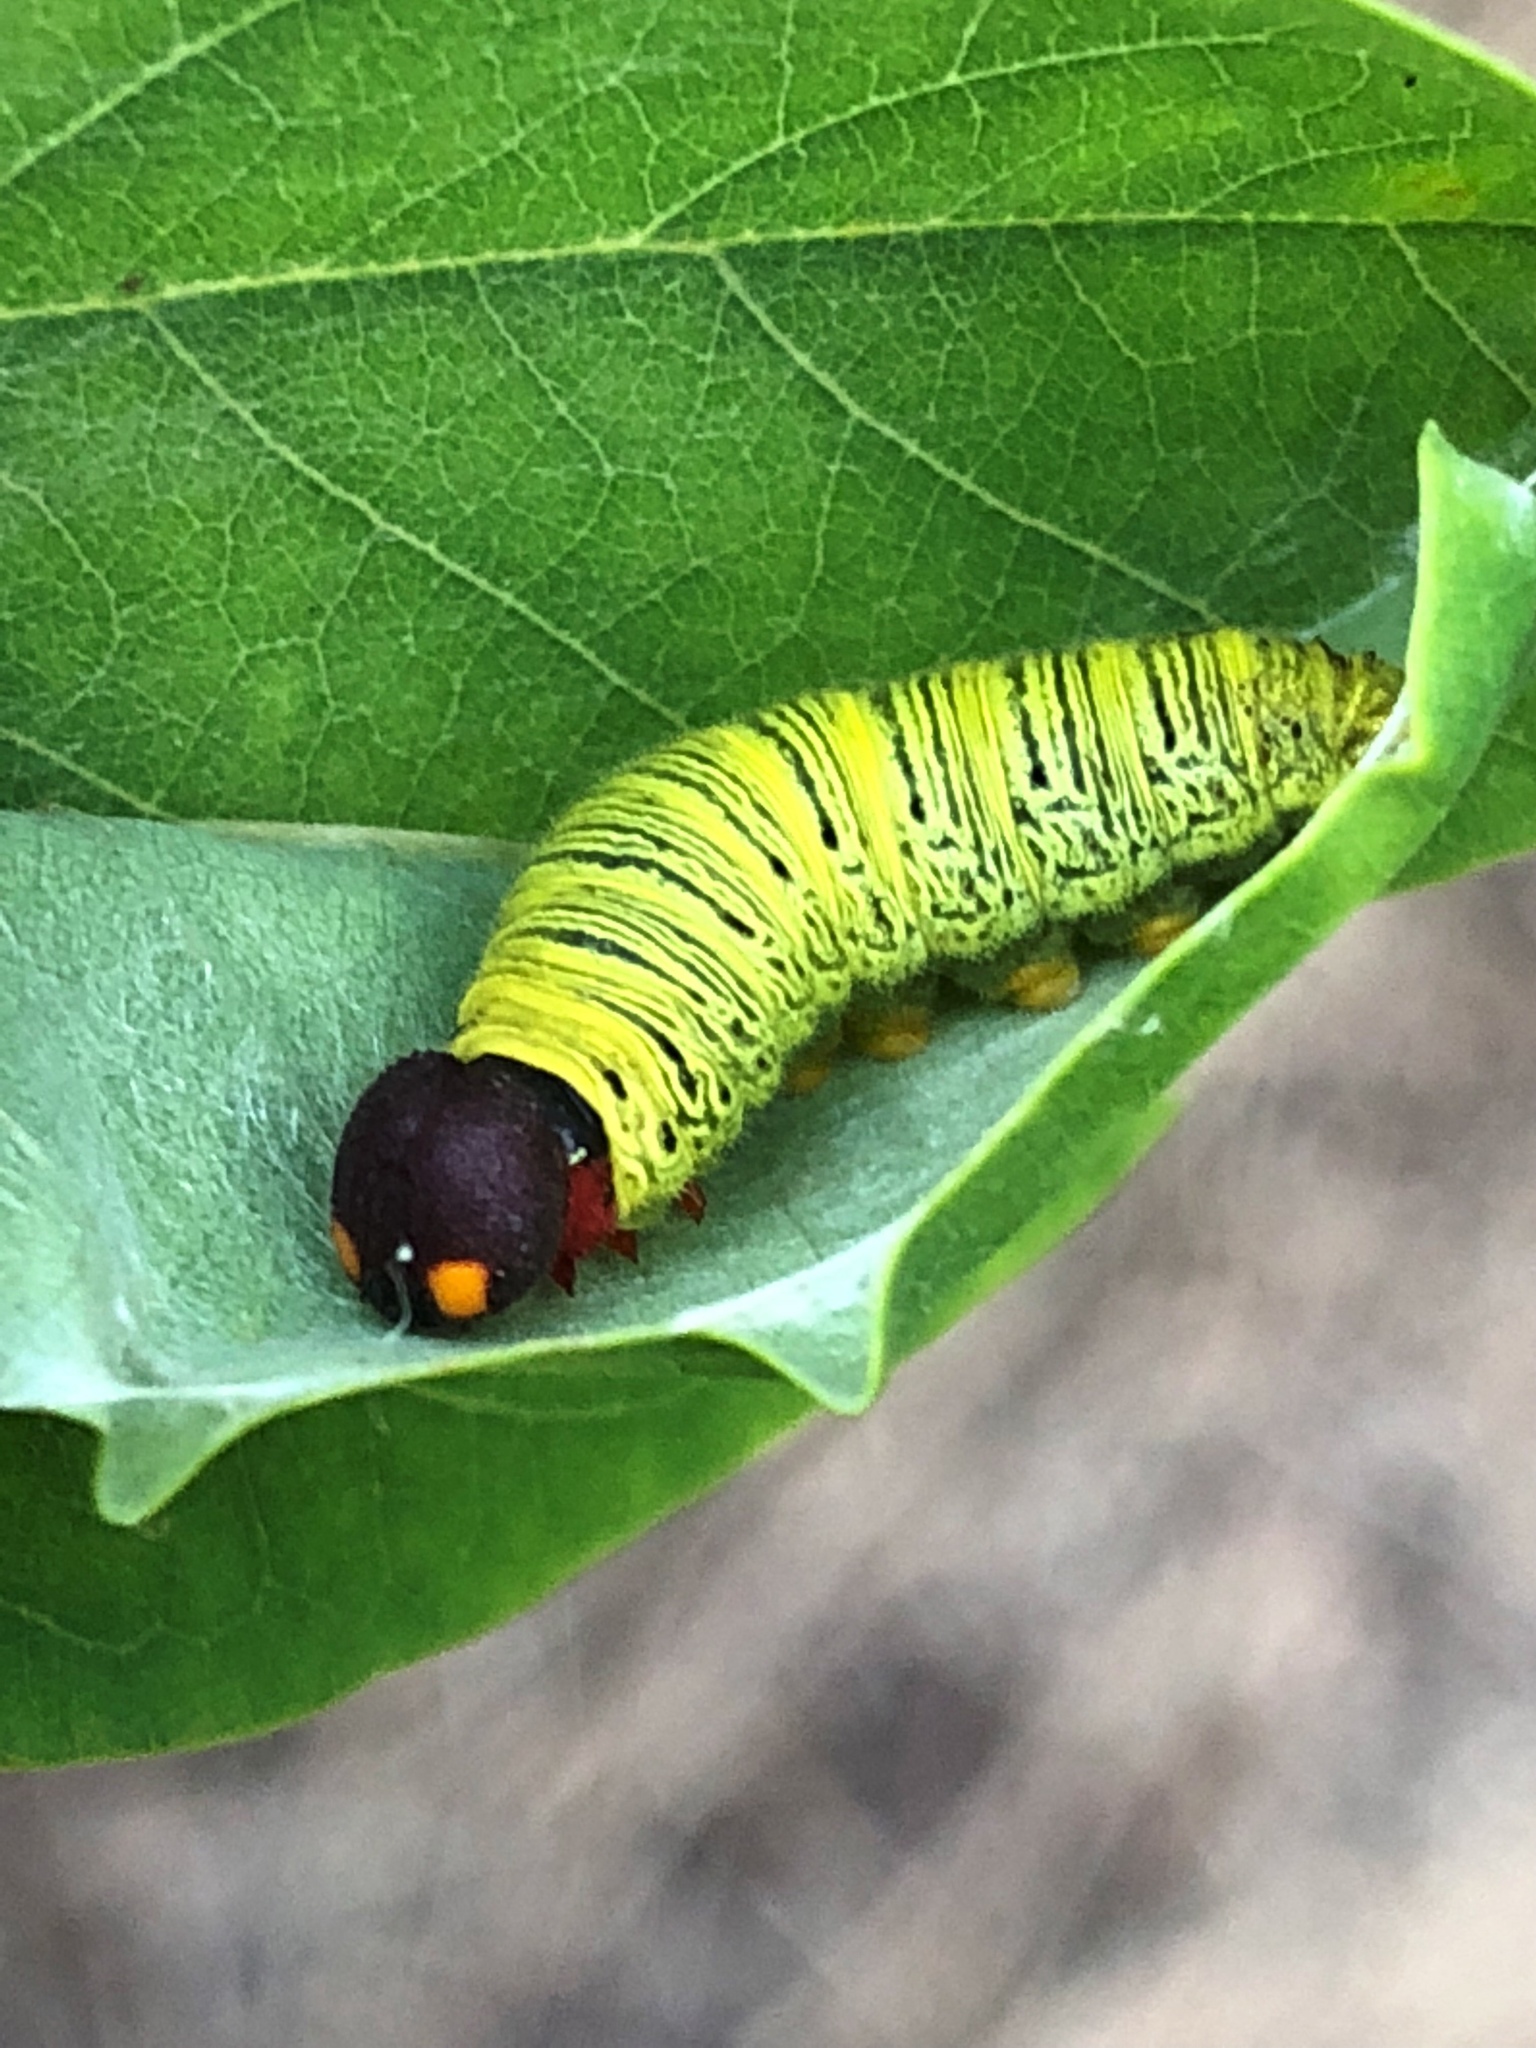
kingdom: Animalia
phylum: Arthropoda
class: Insecta
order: Lepidoptera
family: Hesperiidae
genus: Epargyreus
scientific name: Epargyreus clarus
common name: Silver-spotted skipper
